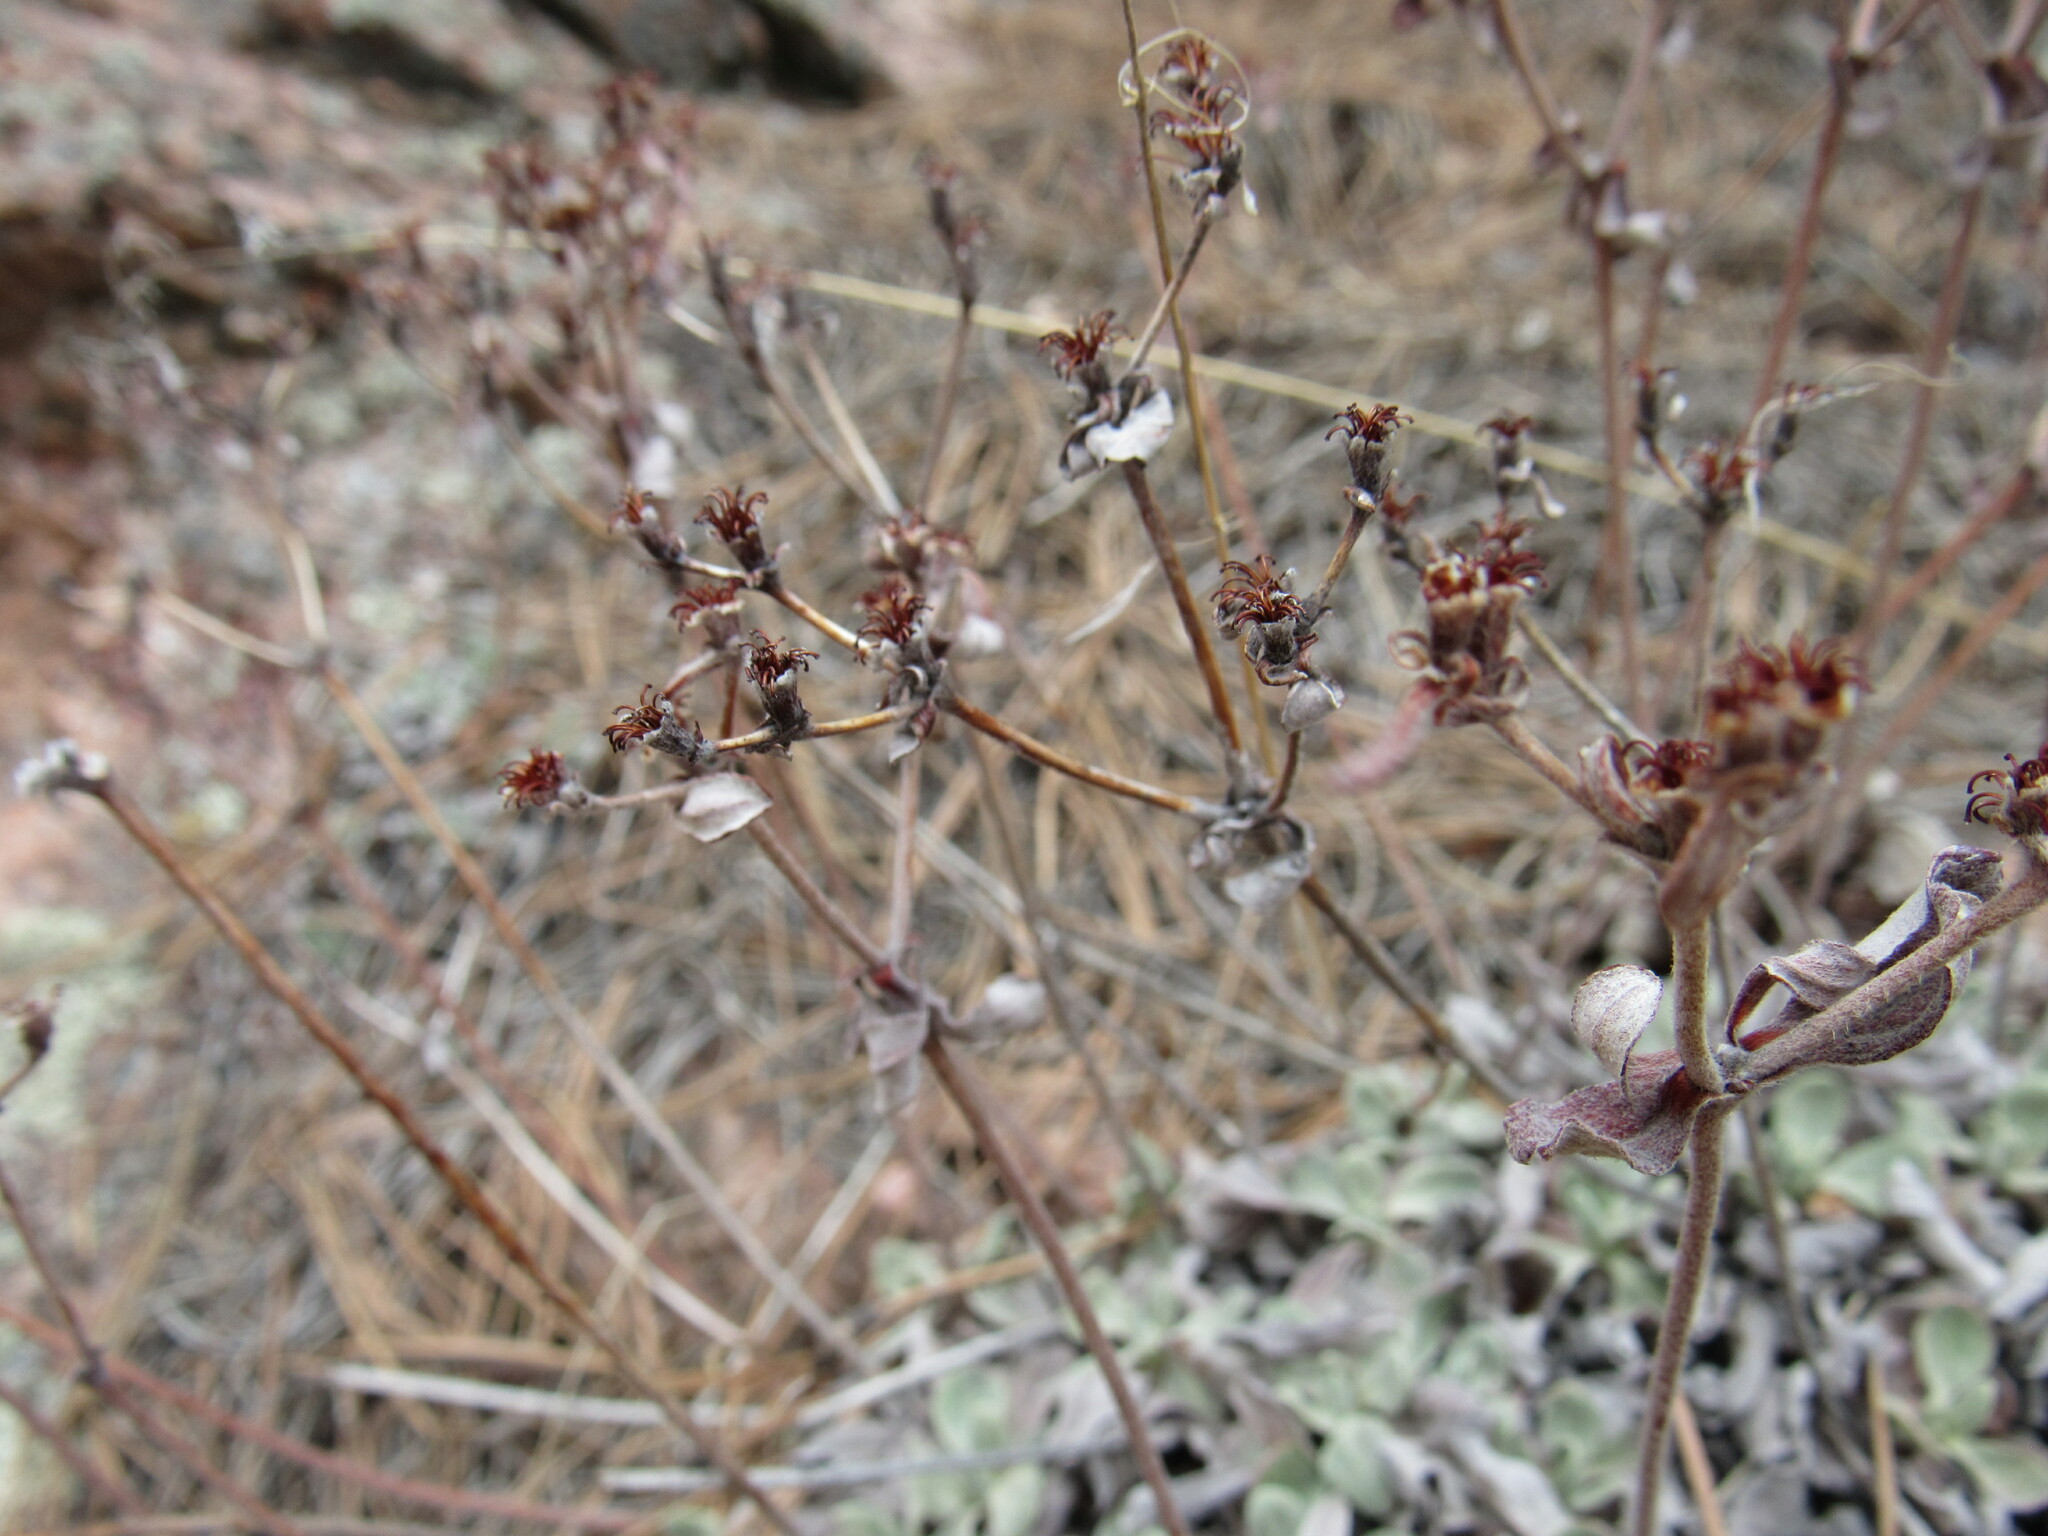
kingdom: Plantae
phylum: Tracheophyta
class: Magnoliopsida
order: Caryophyllales
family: Polygonaceae
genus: Eriogonum
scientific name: Eriogonum umbellatum
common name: Sulfur-buckwheat
